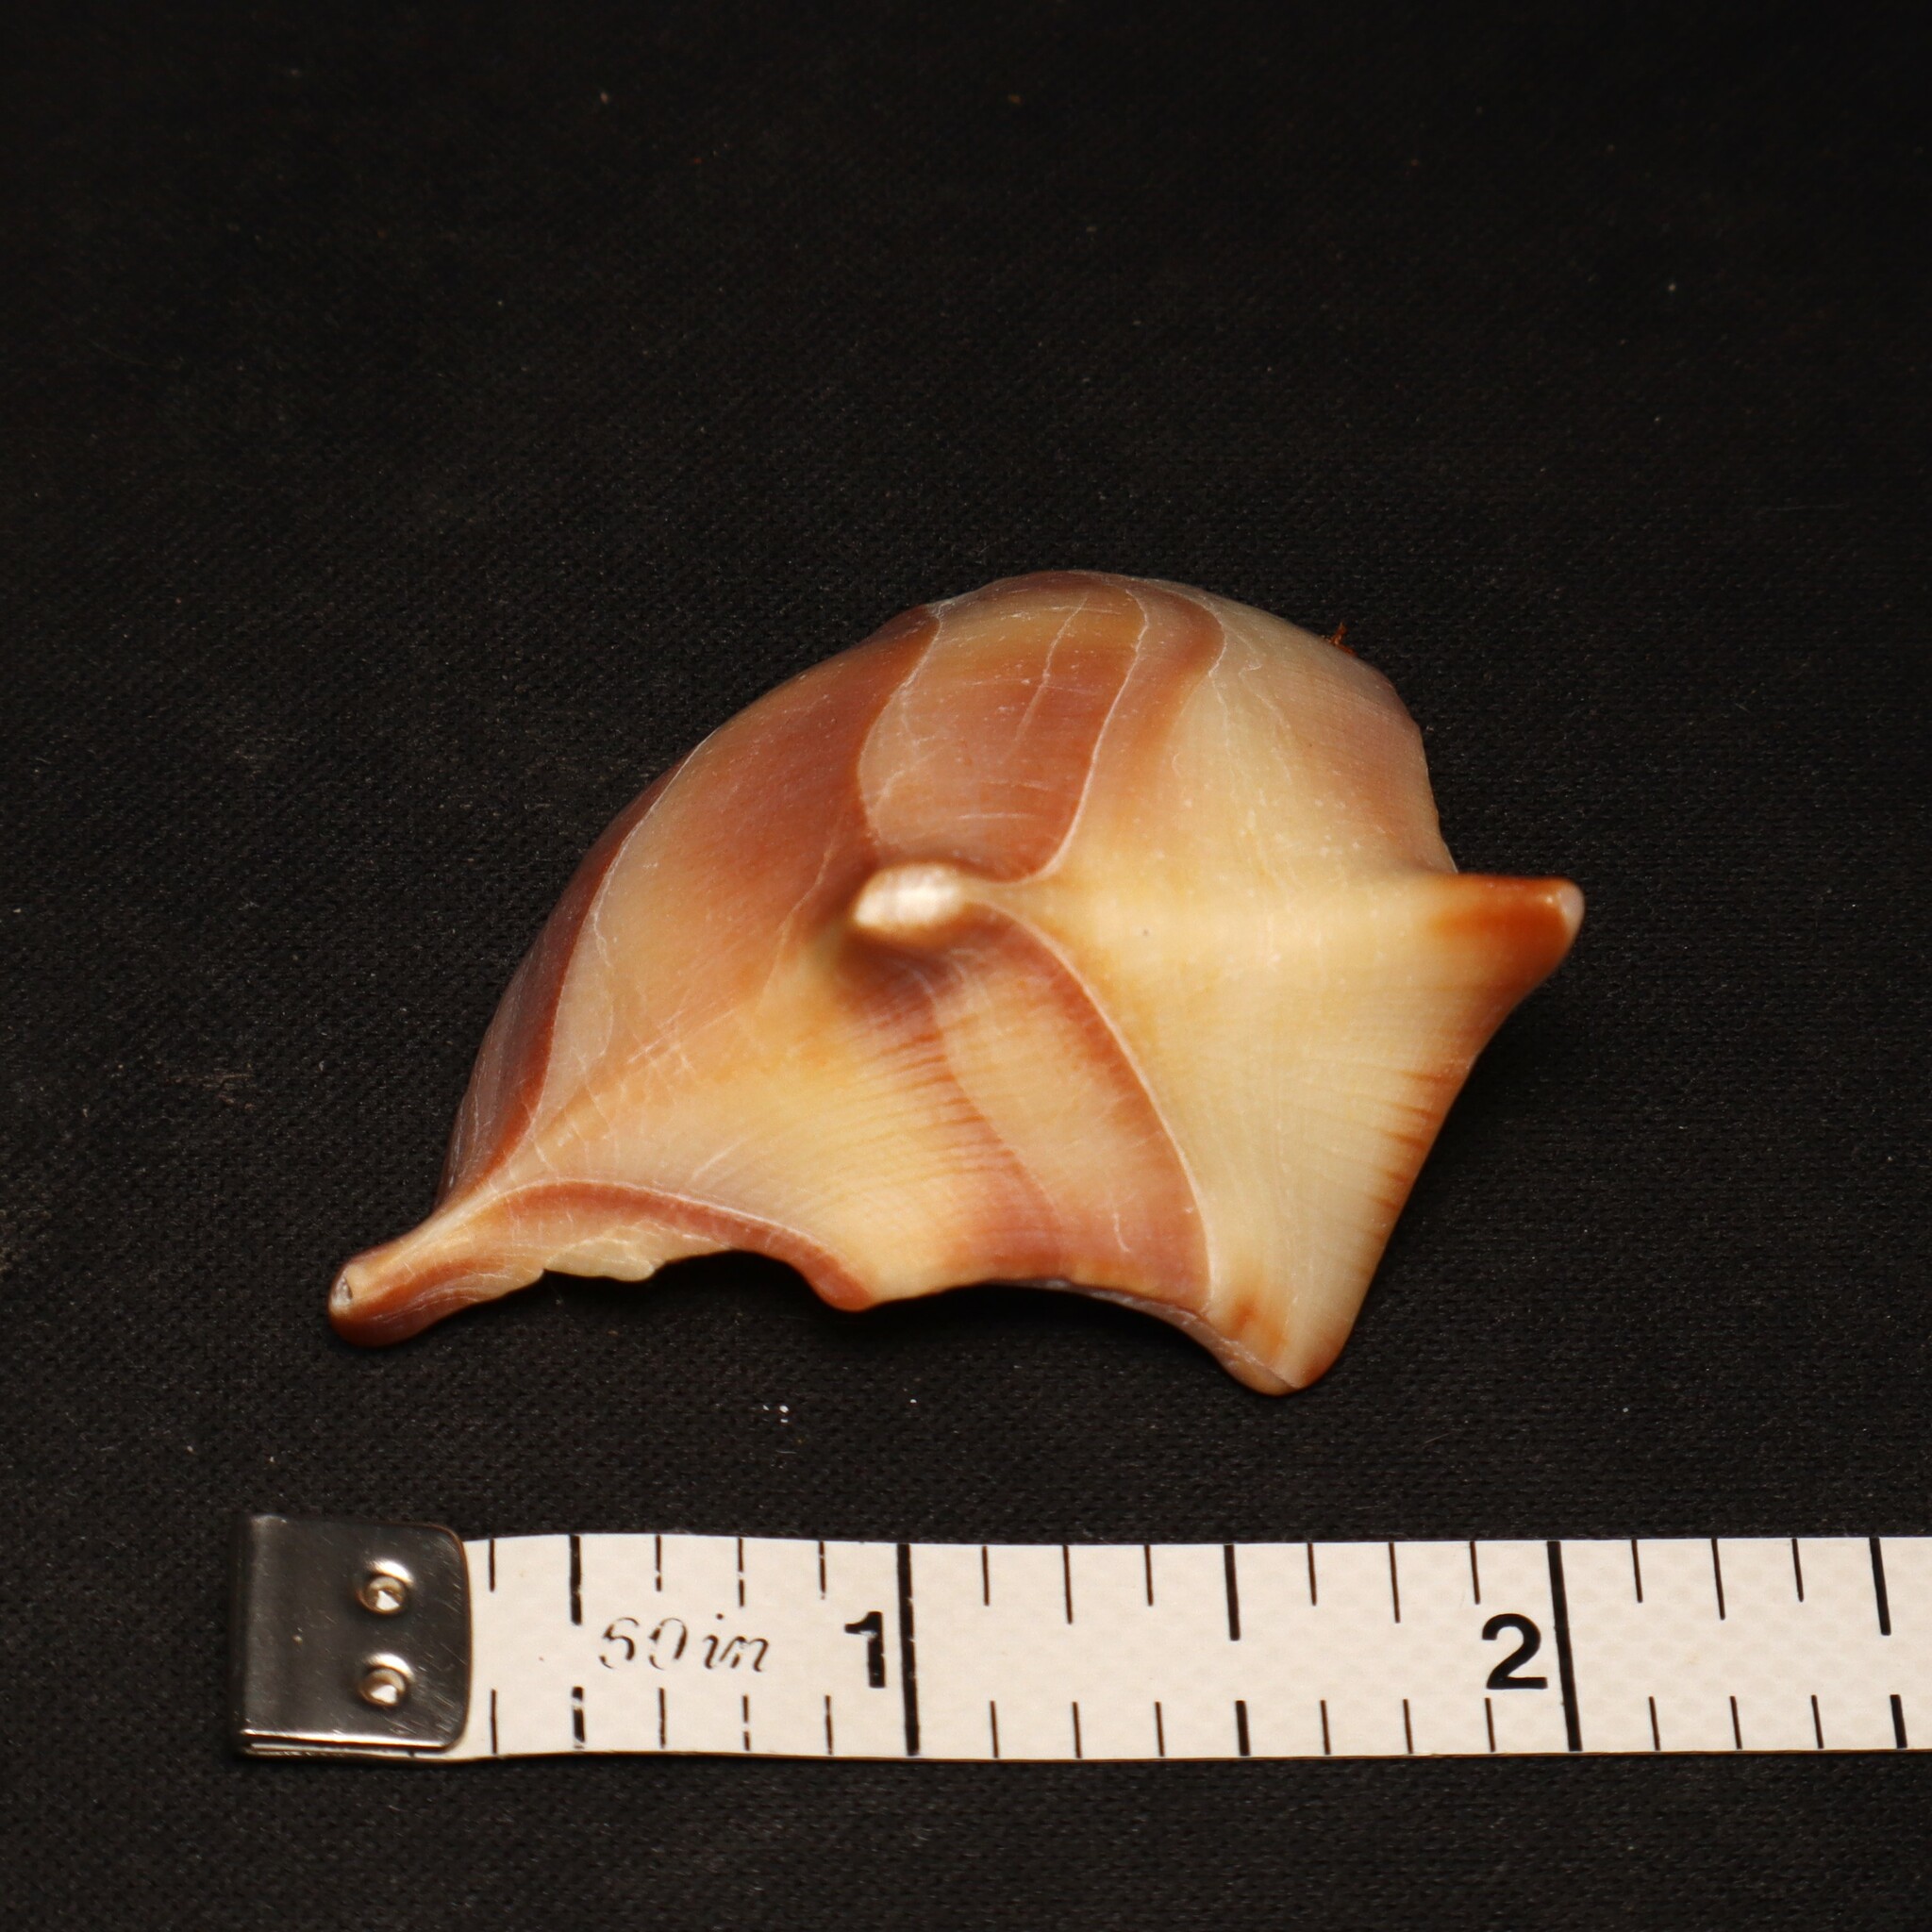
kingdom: Animalia
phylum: Mollusca
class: Gastropoda
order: Neogastropoda
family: Busyconidae
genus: Busycon
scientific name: Busycon carica
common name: Knobbed whelk
